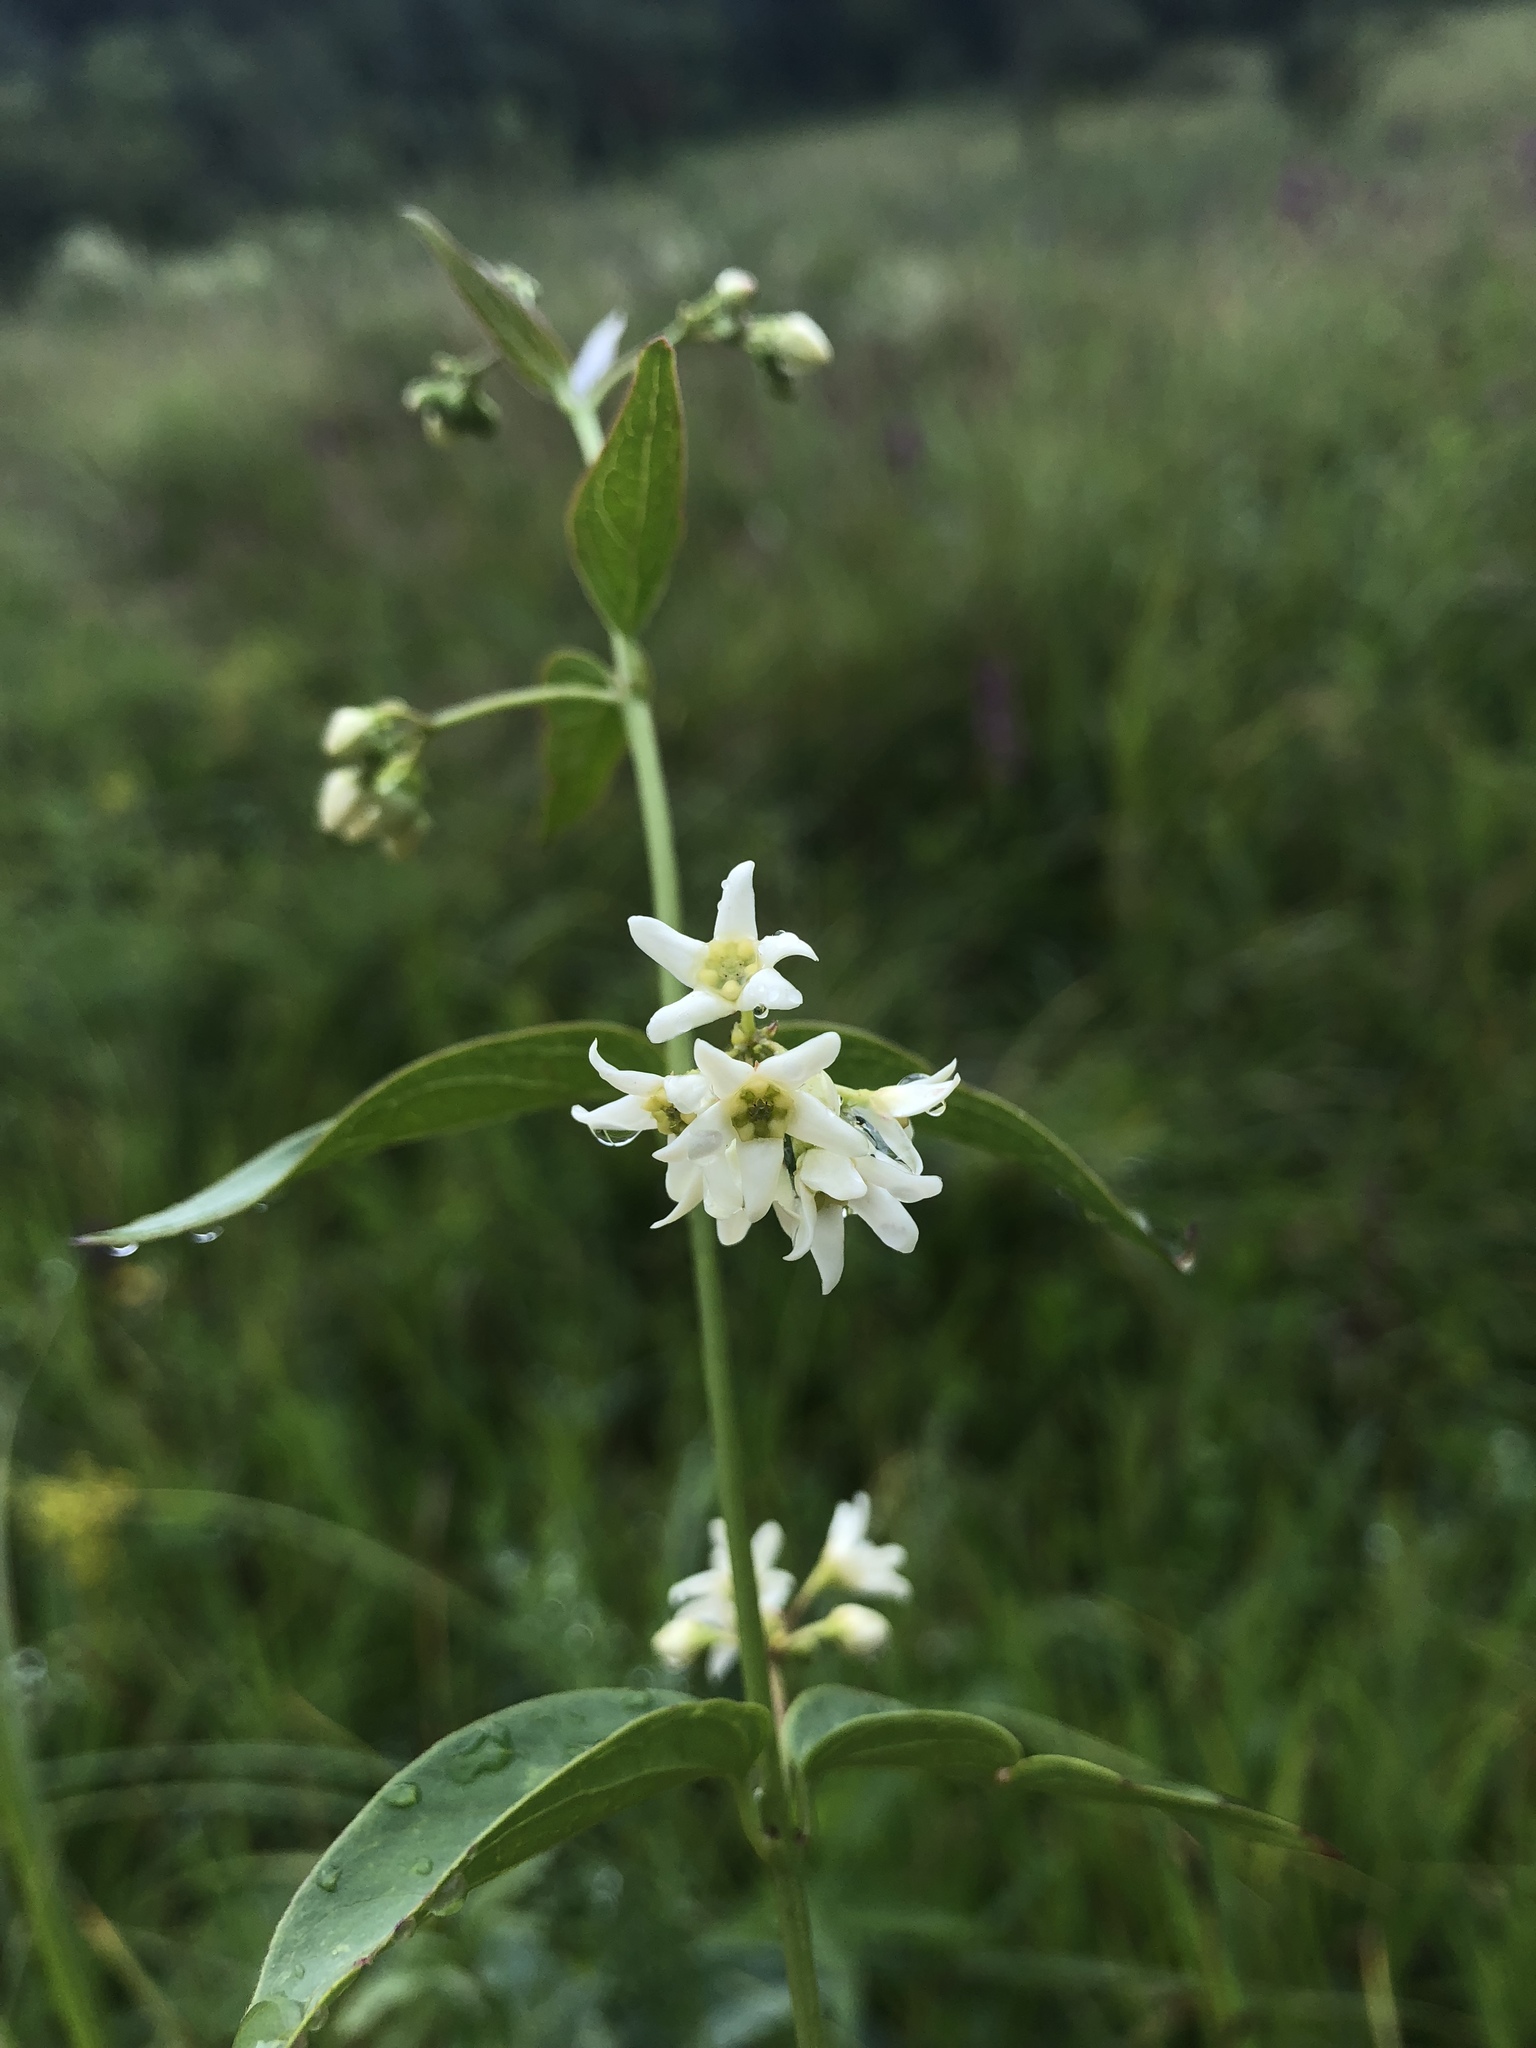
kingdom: Plantae
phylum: Tracheophyta
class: Magnoliopsida
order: Gentianales
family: Apocynaceae
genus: Vincetoxicum
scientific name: Vincetoxicum hirundinaria
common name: White swallowwort
